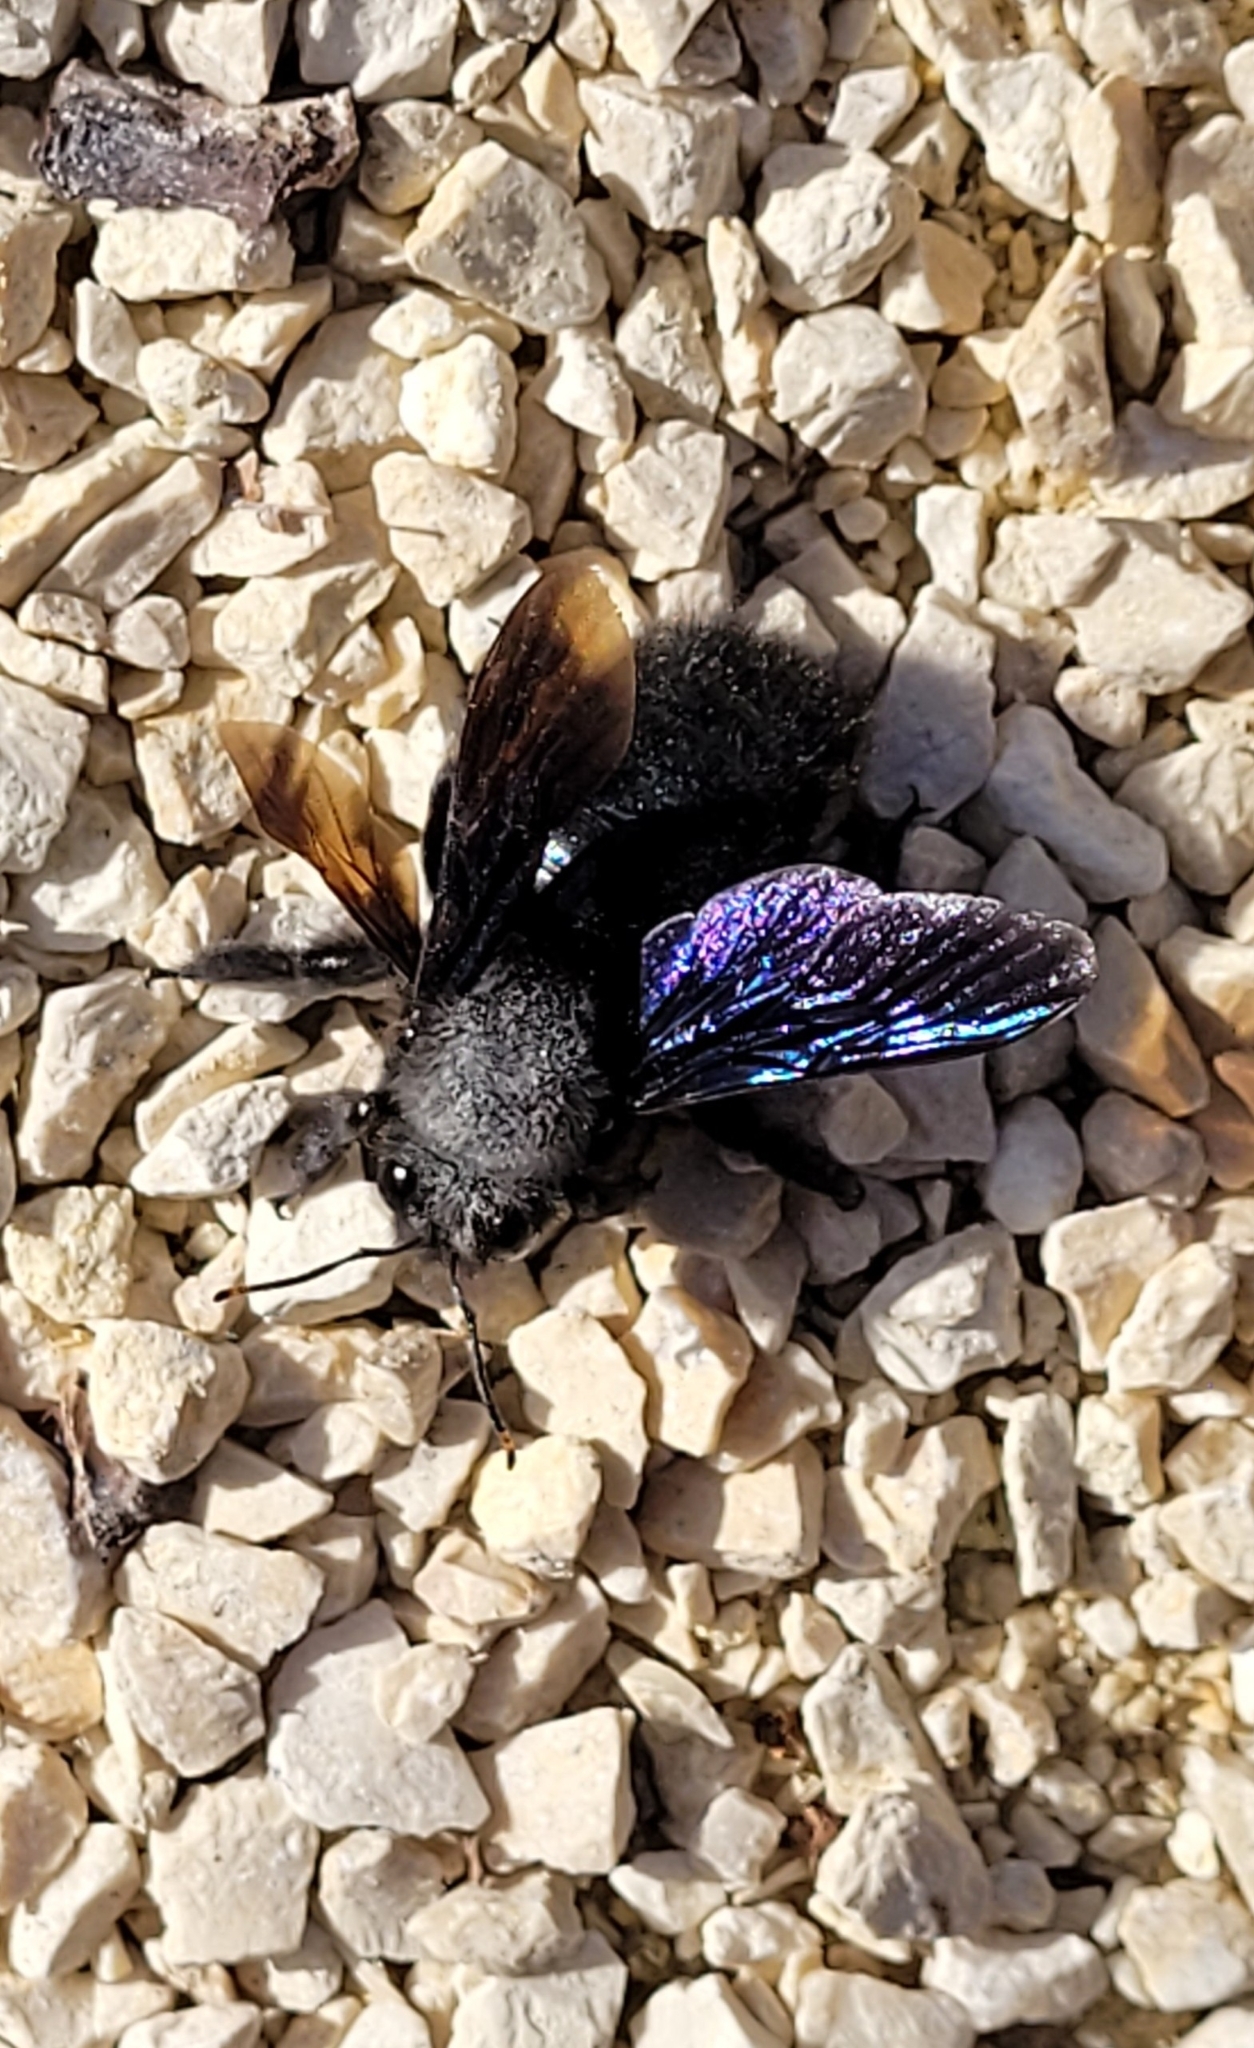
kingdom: Animalia
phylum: Arthropoda
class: Insecta
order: Hymenoptera
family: Apidae
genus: Xylocopa
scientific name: Xylocopa violacea
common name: Violet carpenter bee
